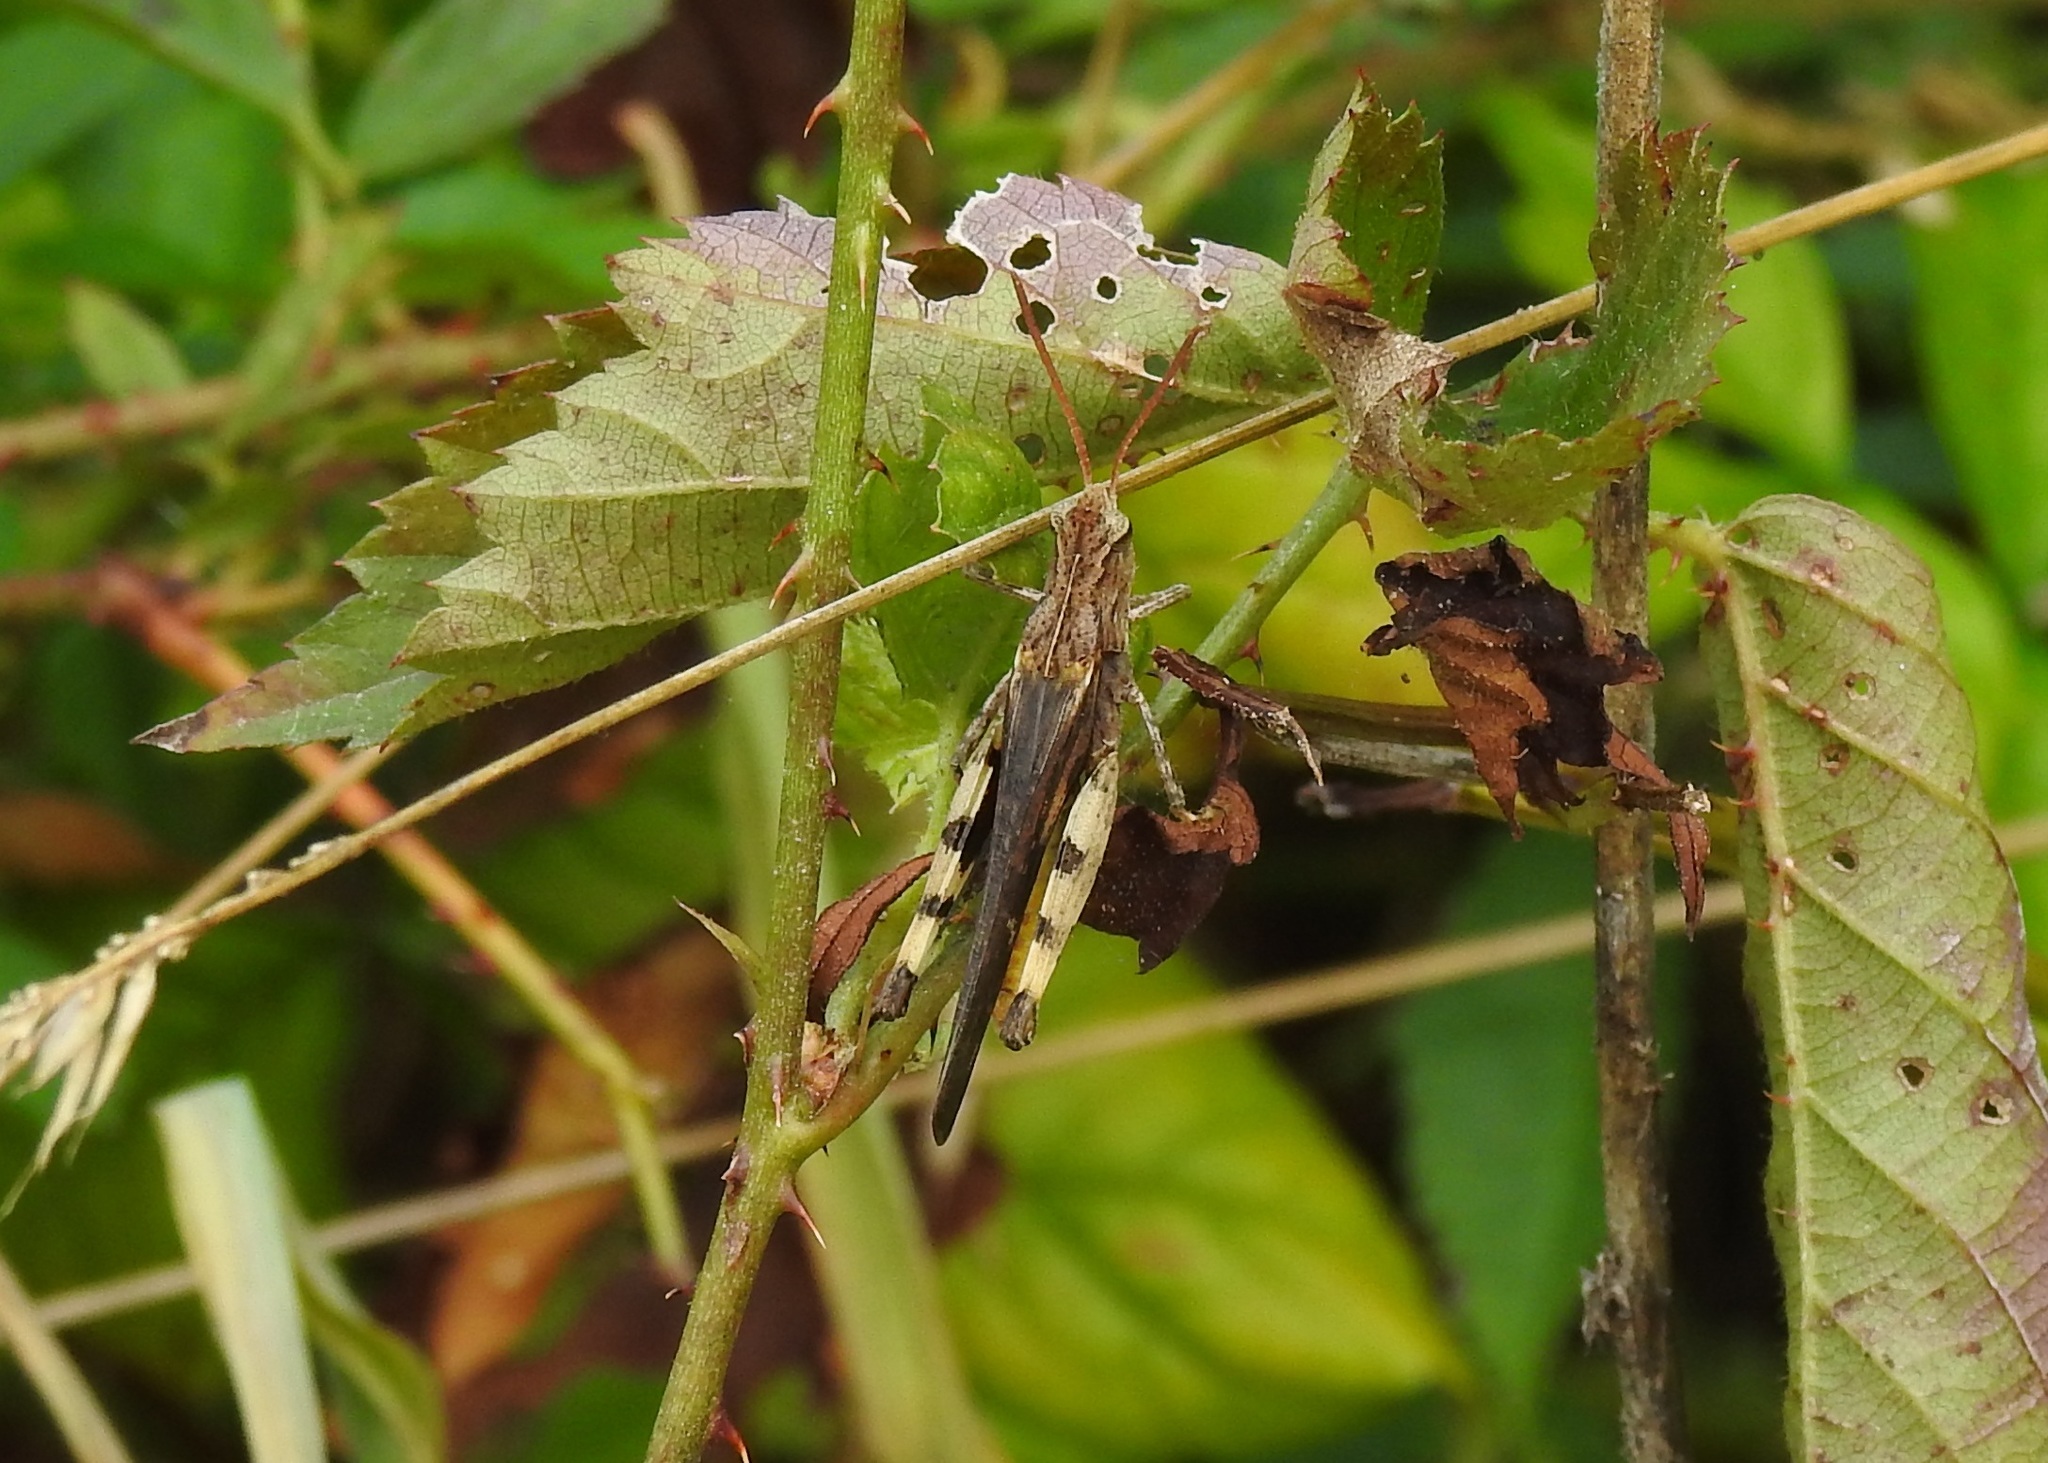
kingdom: Animalia
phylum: Arthropoda
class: Insecta
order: Orthoptera
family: Acrididae
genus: Chortophaga
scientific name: Chortophaga viridifasciata
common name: Green-striped grasshopper
